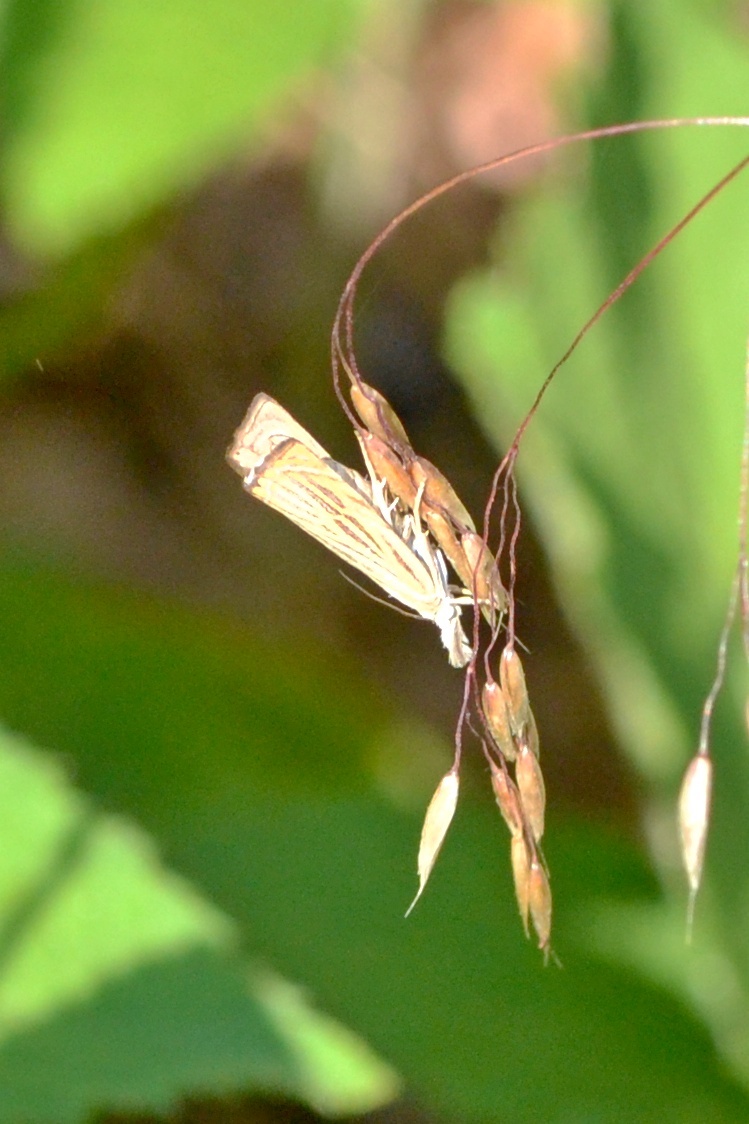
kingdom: Animalia
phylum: Arthropoda
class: Insecta
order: Lepidoptera
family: Crambidae
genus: Chrysoteuchia
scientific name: Chrysoteuchia culmella
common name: Garden grass-veneer
